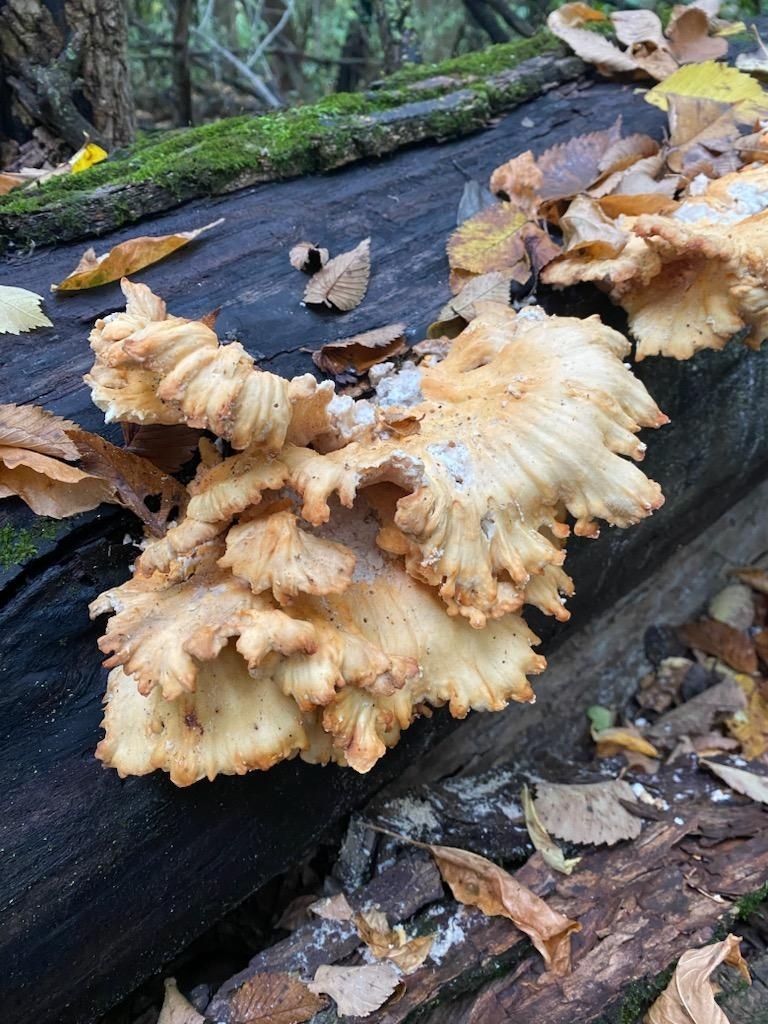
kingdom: Fungi
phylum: Basidiomycota
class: Agaricomycetes
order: Polyporales
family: Laetiporaceae
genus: Laetiporus
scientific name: Laetiporus sulphureus
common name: Chicken of the woods
